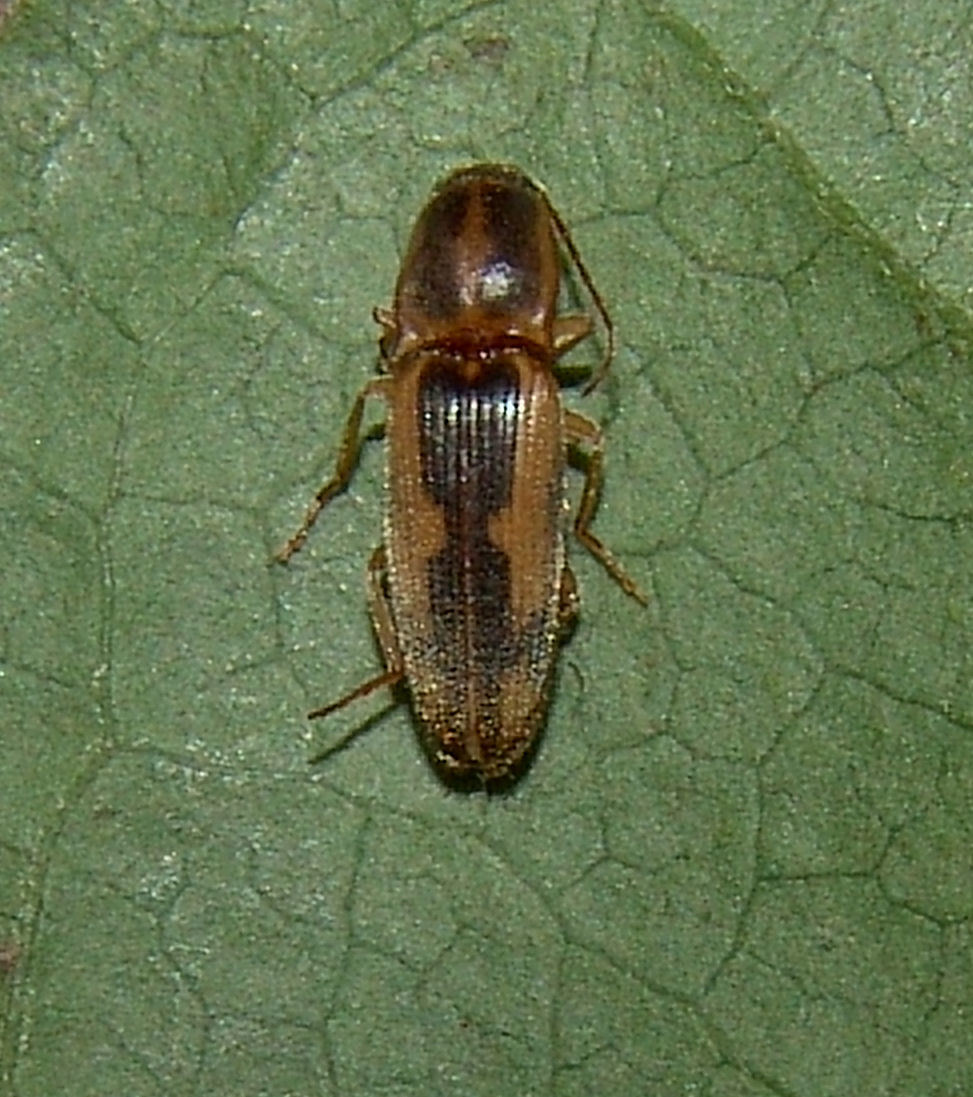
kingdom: Animalia
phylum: Arthropoda
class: Insecta
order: Coleoptera
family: Elateridae
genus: Monocrepidius
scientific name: Monocrepidius
